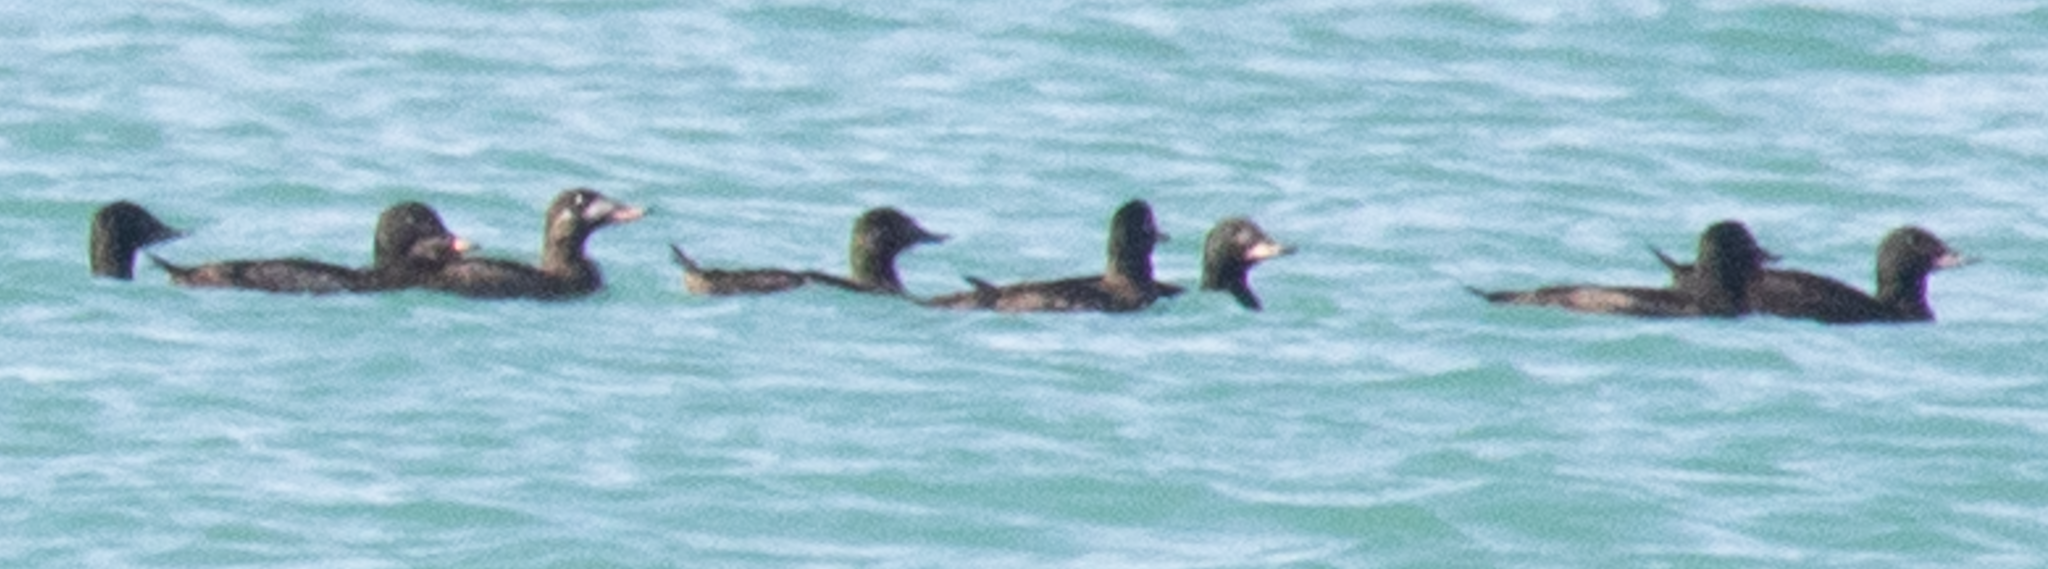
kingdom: Animalia
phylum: Chordata
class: Aves
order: Anseriformes
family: Anatidae
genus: Melanitta
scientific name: Melanitta fusca
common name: Velvet scoter
